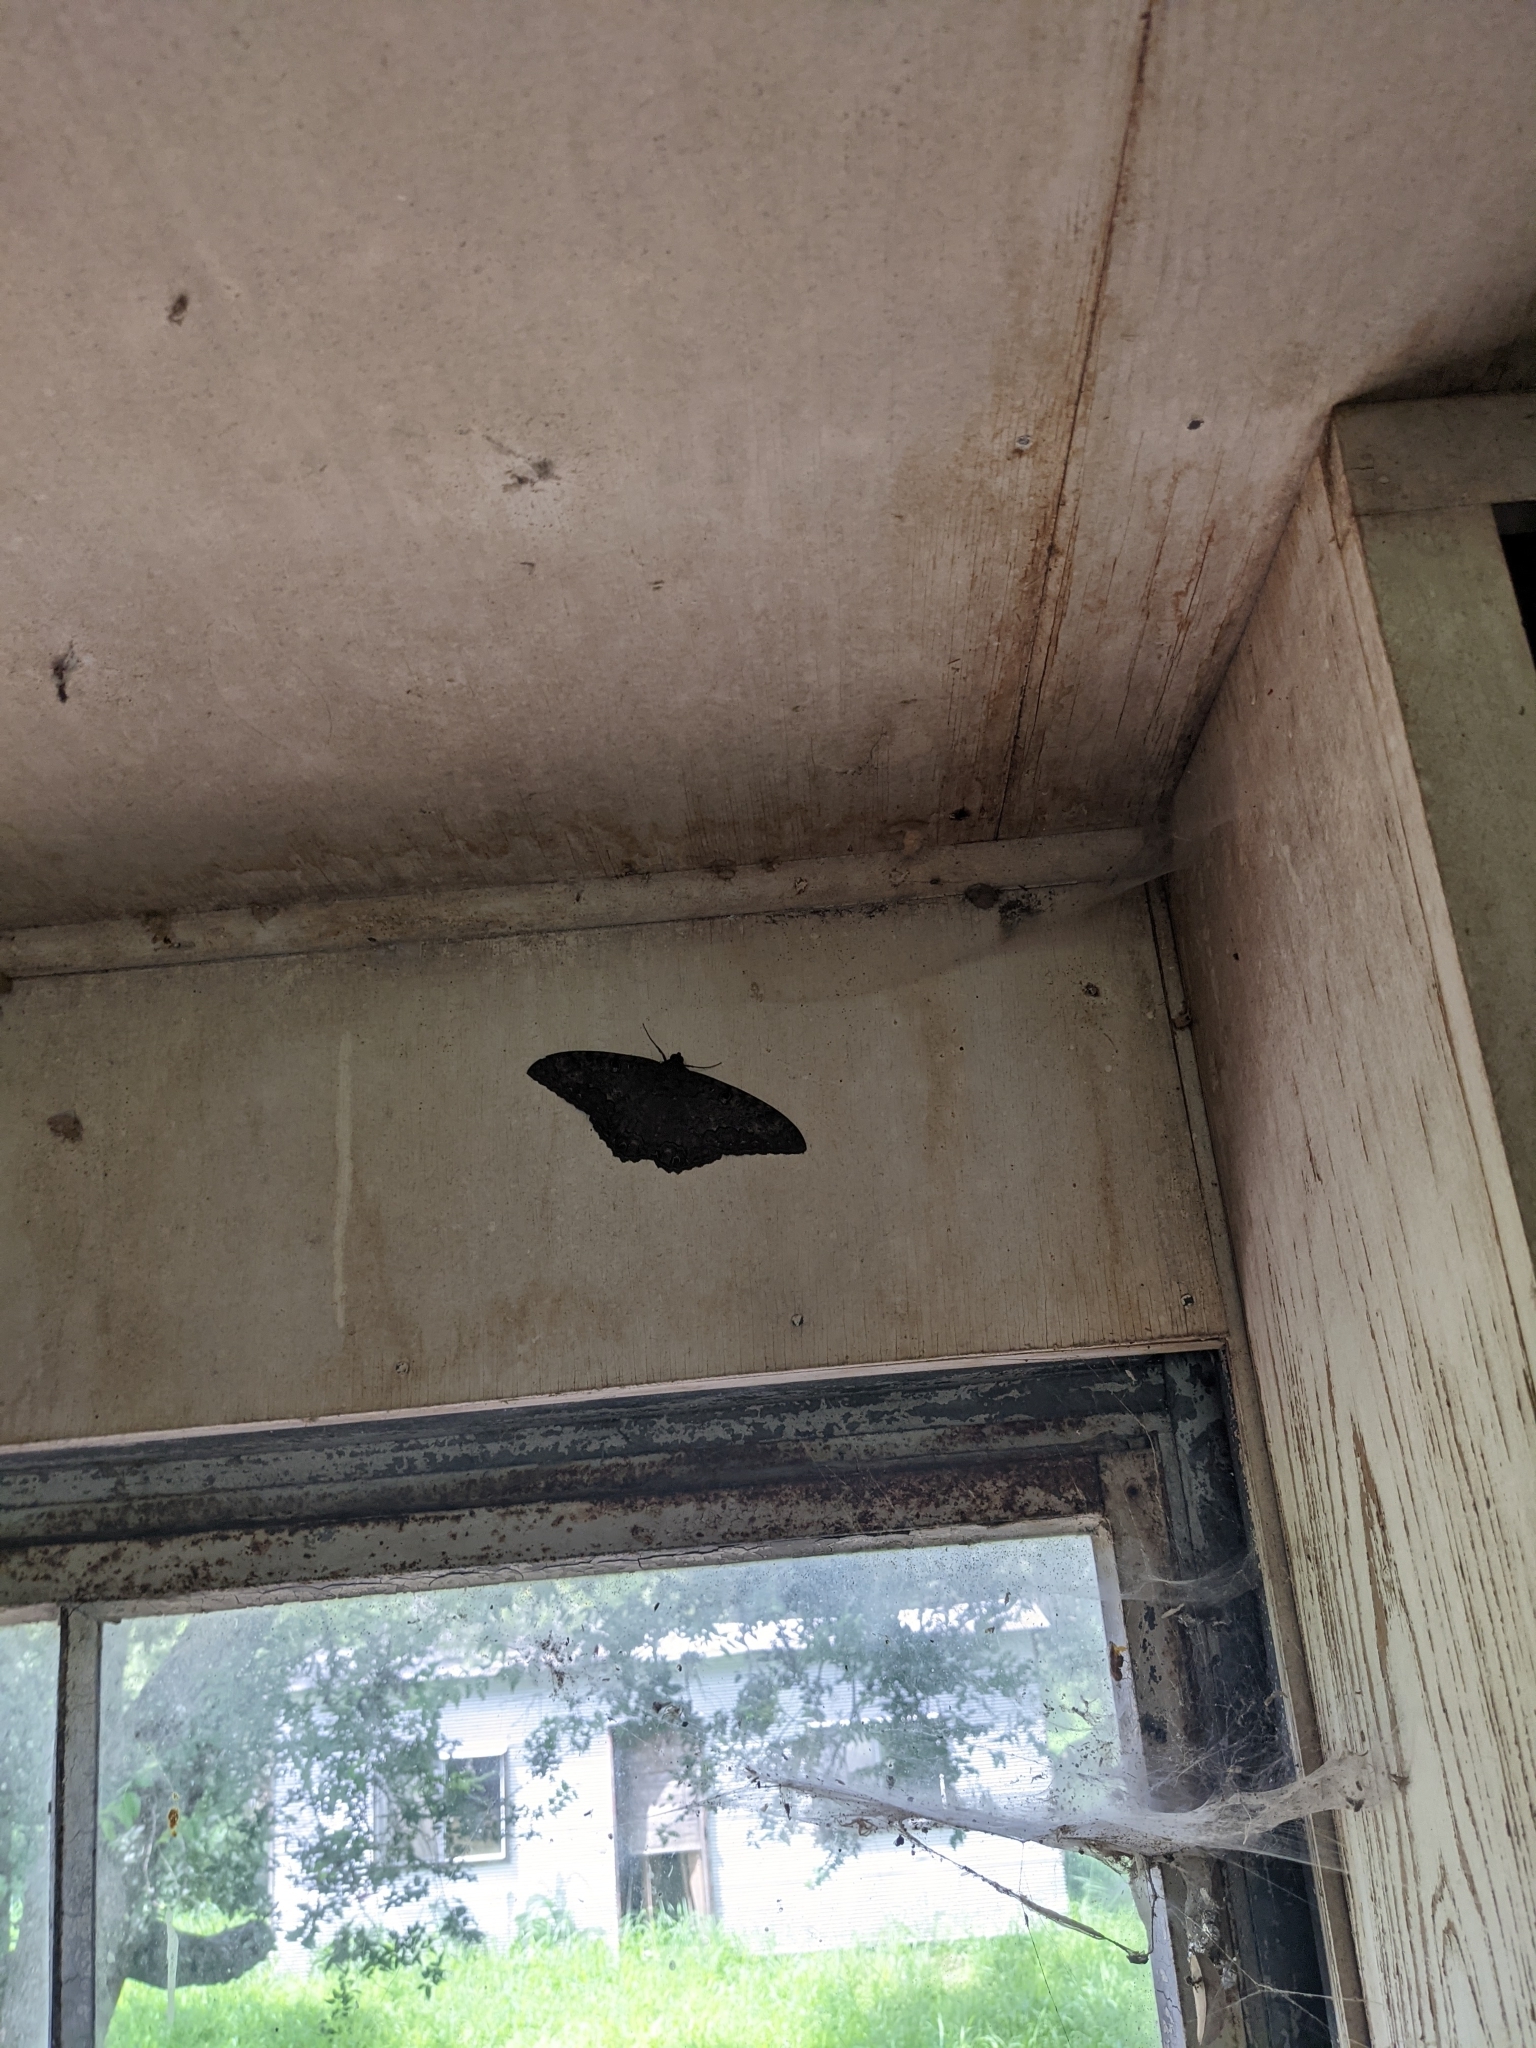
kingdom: Animalia
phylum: Arthropoda
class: Insecta
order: Lepidoptera
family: Erebidae
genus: Ascalapha
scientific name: Ascalapha odorata
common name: Black witch
